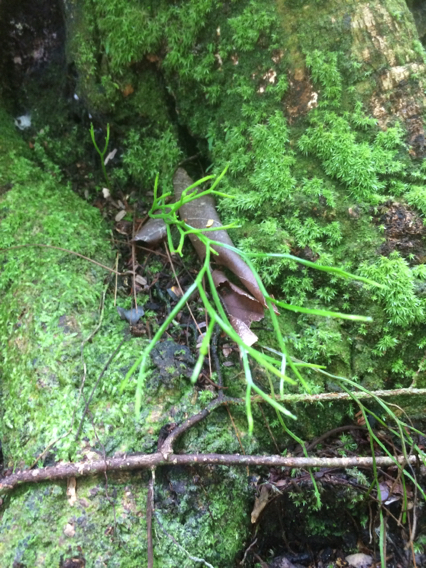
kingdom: Plantae
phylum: Tracheophyta
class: Polypodiopsida
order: Psilotales
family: Psilotaceae
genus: Psilotum
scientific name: Psilotum nudum
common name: Skeleton fork fern
